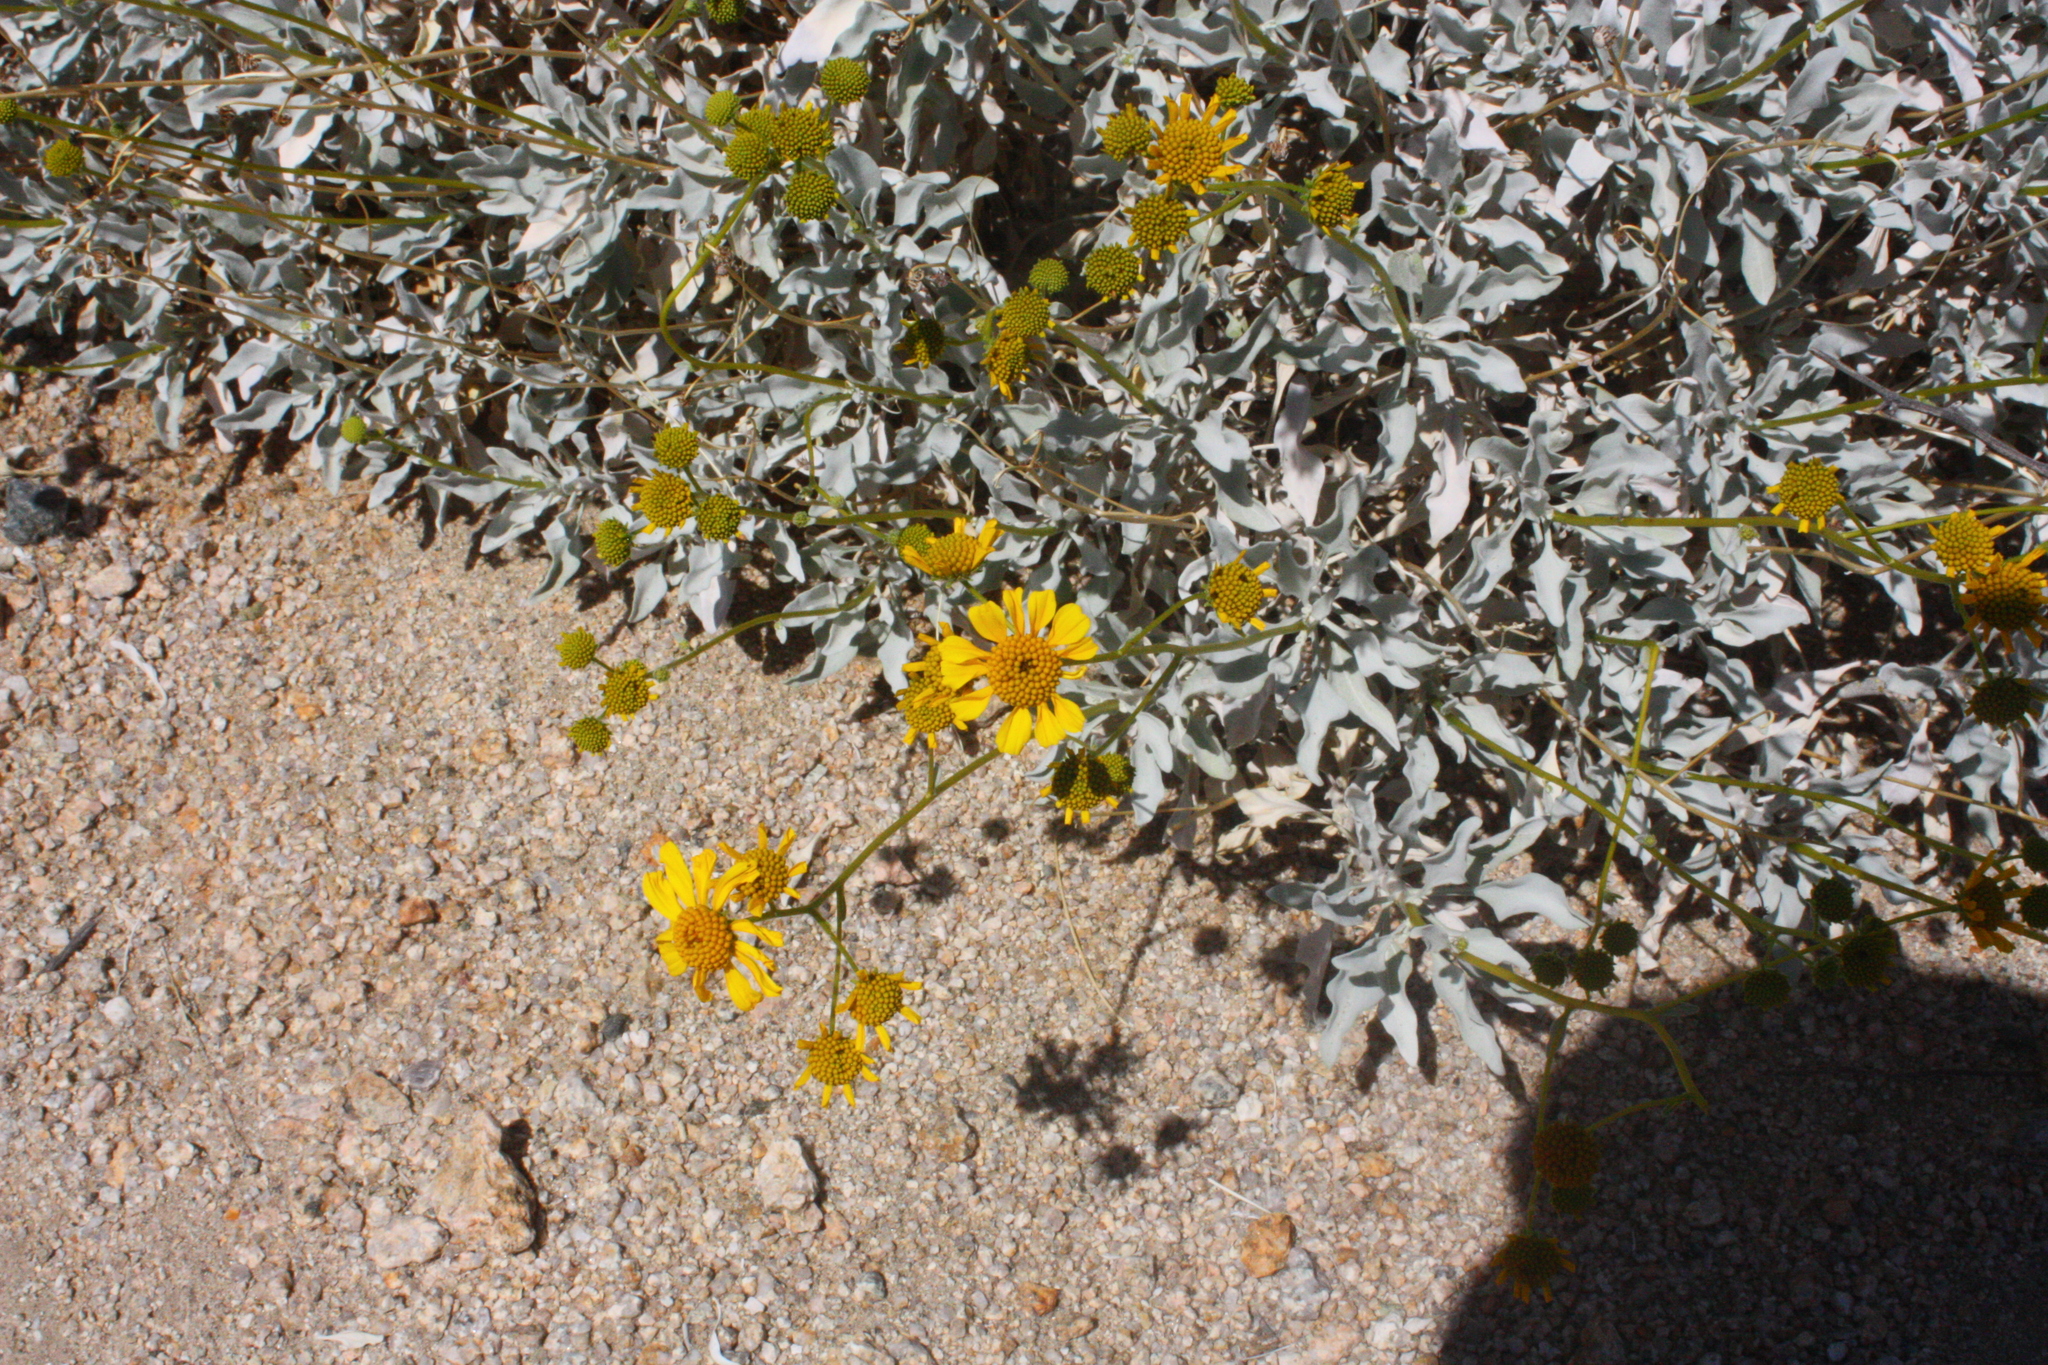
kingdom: Plantae
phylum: Tracheophyta
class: Magnoliopsida
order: Asterales
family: Asteraceae
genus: Encelia
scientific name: Encelia farinosa
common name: Brittlebush
